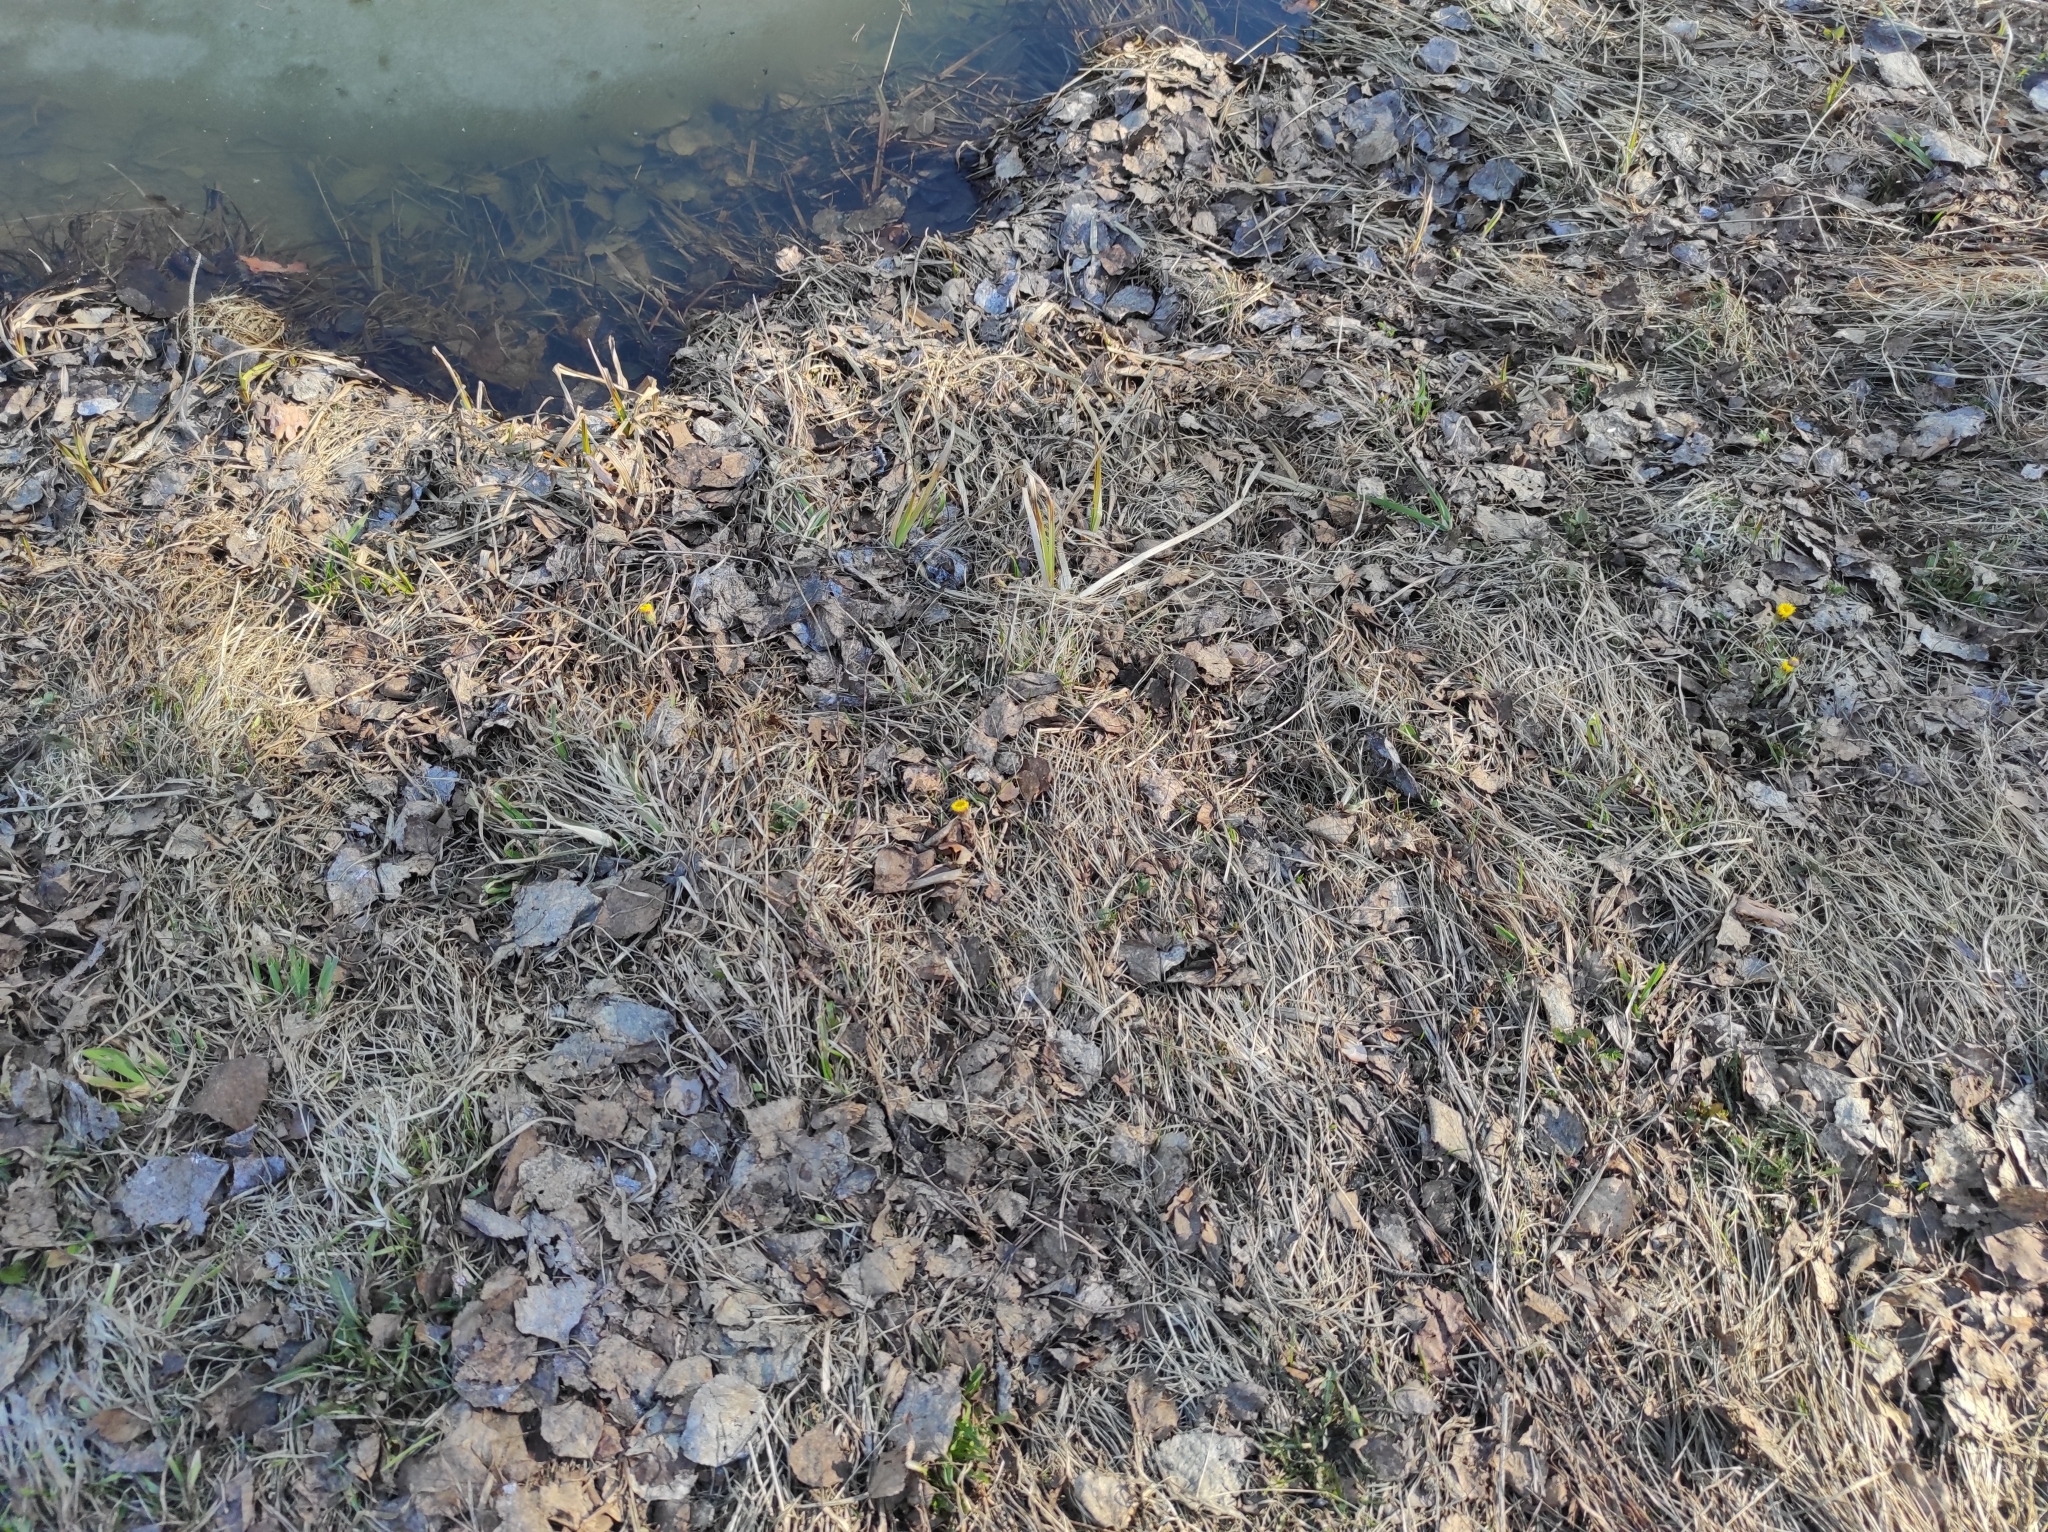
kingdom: Plantae
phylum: Tracheophyta
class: Magnoliopsida
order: Asterales
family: Asteraceae
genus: Tussilago
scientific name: Tussilago farfara
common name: Coltsfoot
